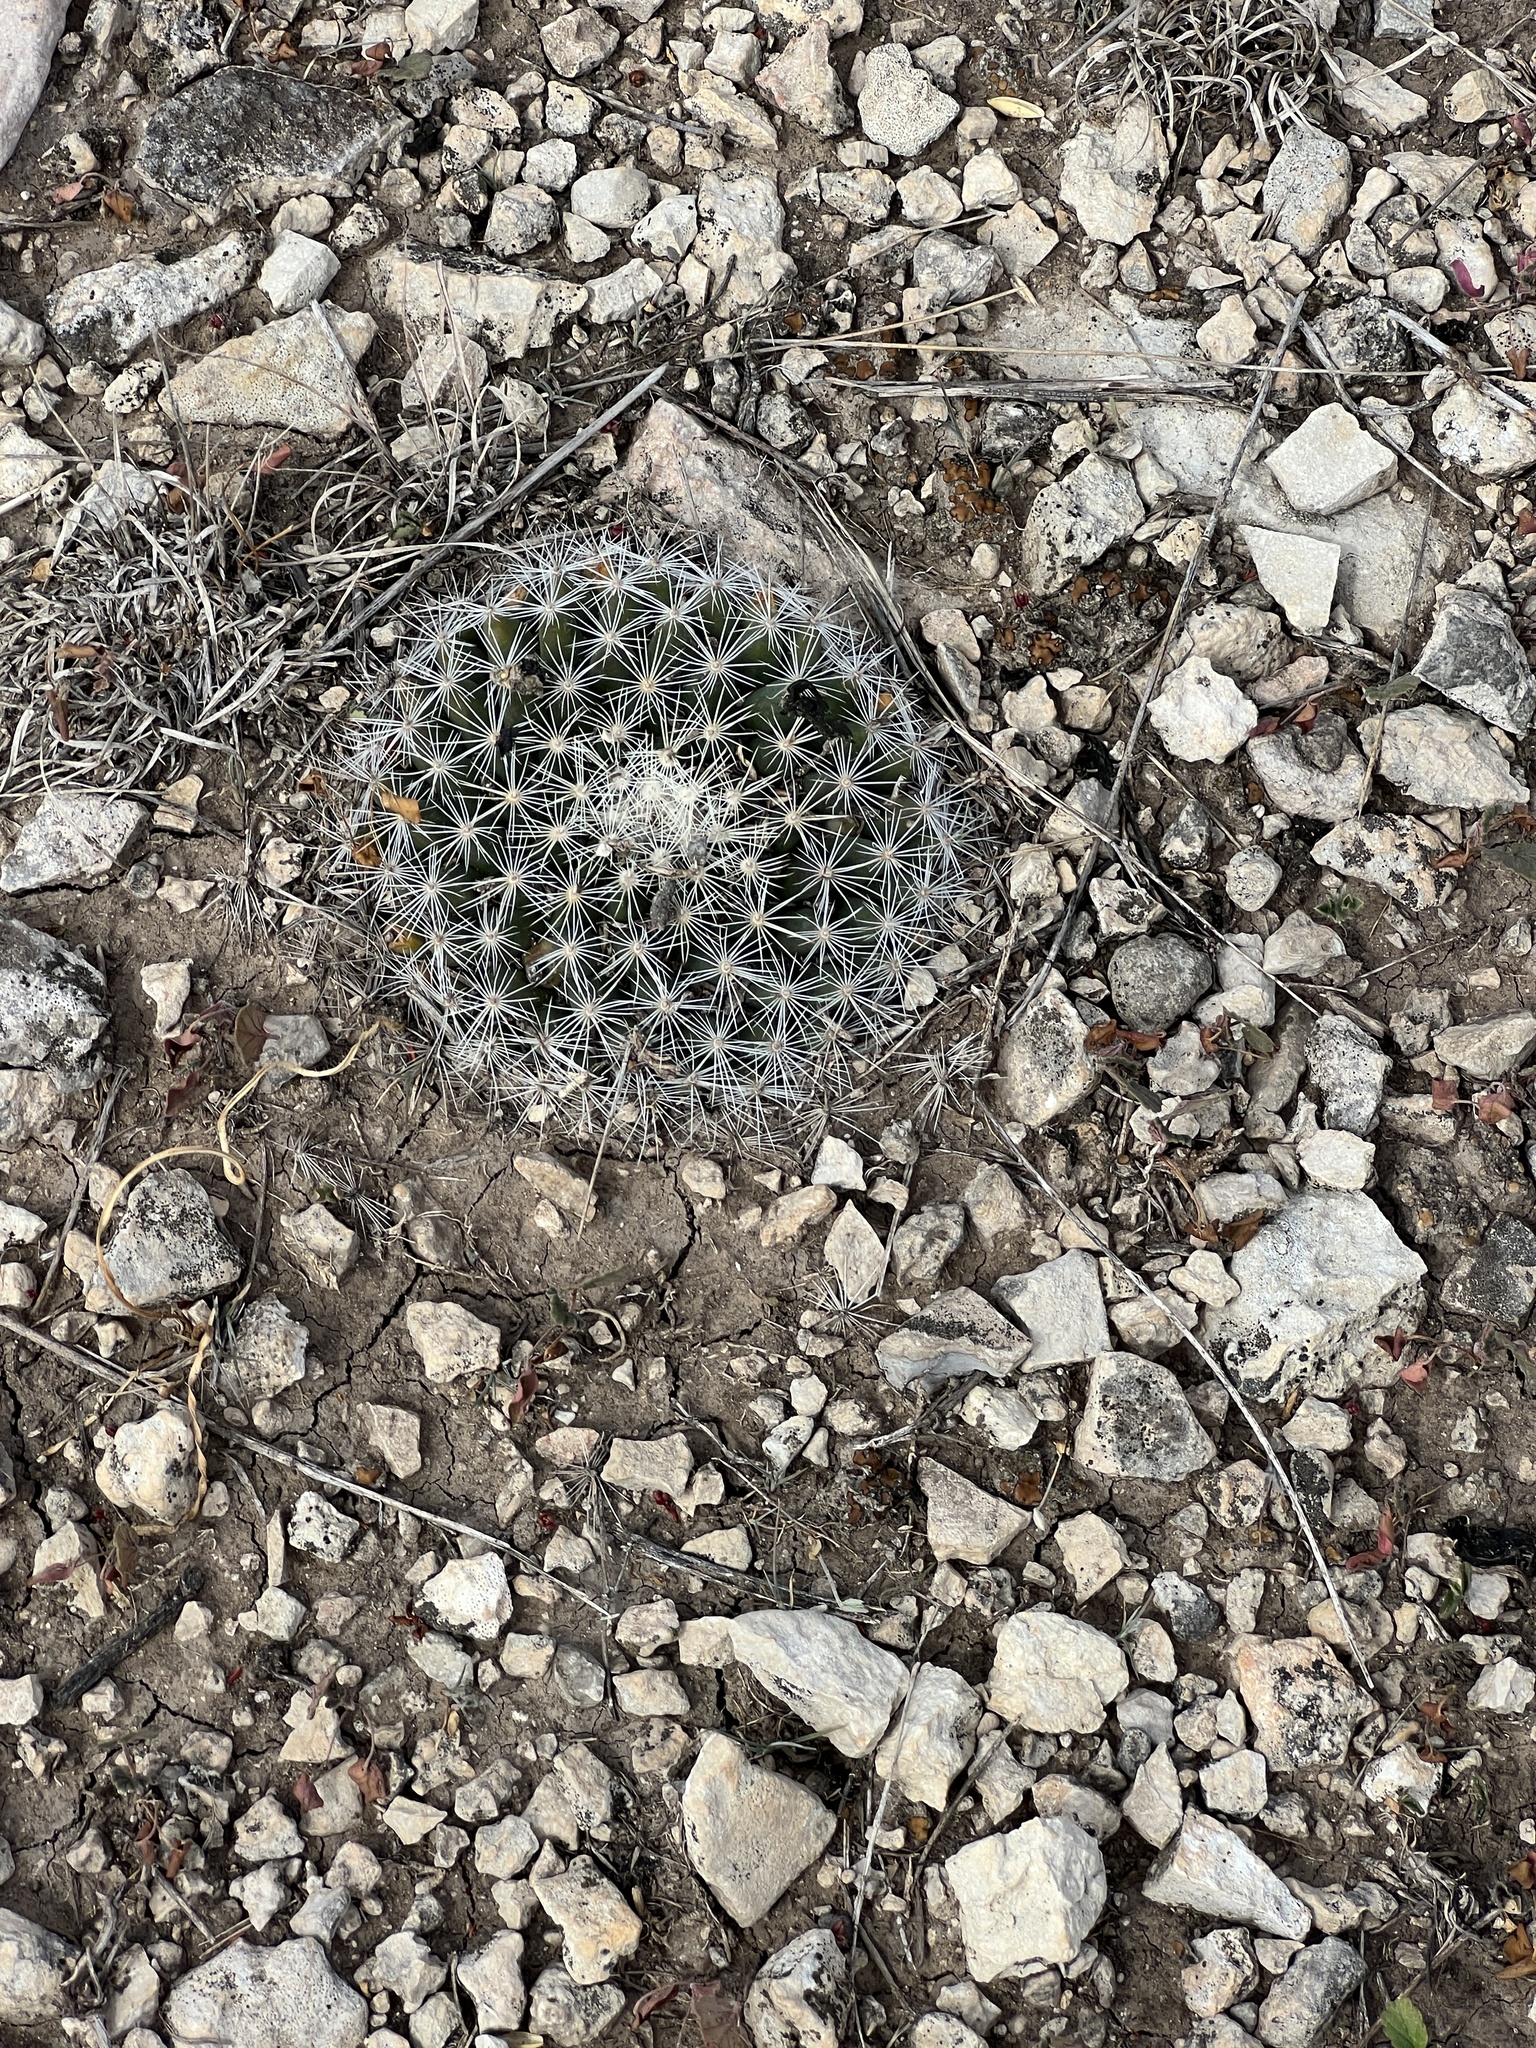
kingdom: Plantae
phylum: Tracheophyta
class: Magnoliopsida
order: Caryophyllales
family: Cactaceae
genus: Mammillaria
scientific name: Mammillaria heyderi
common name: Little nipple cactus
